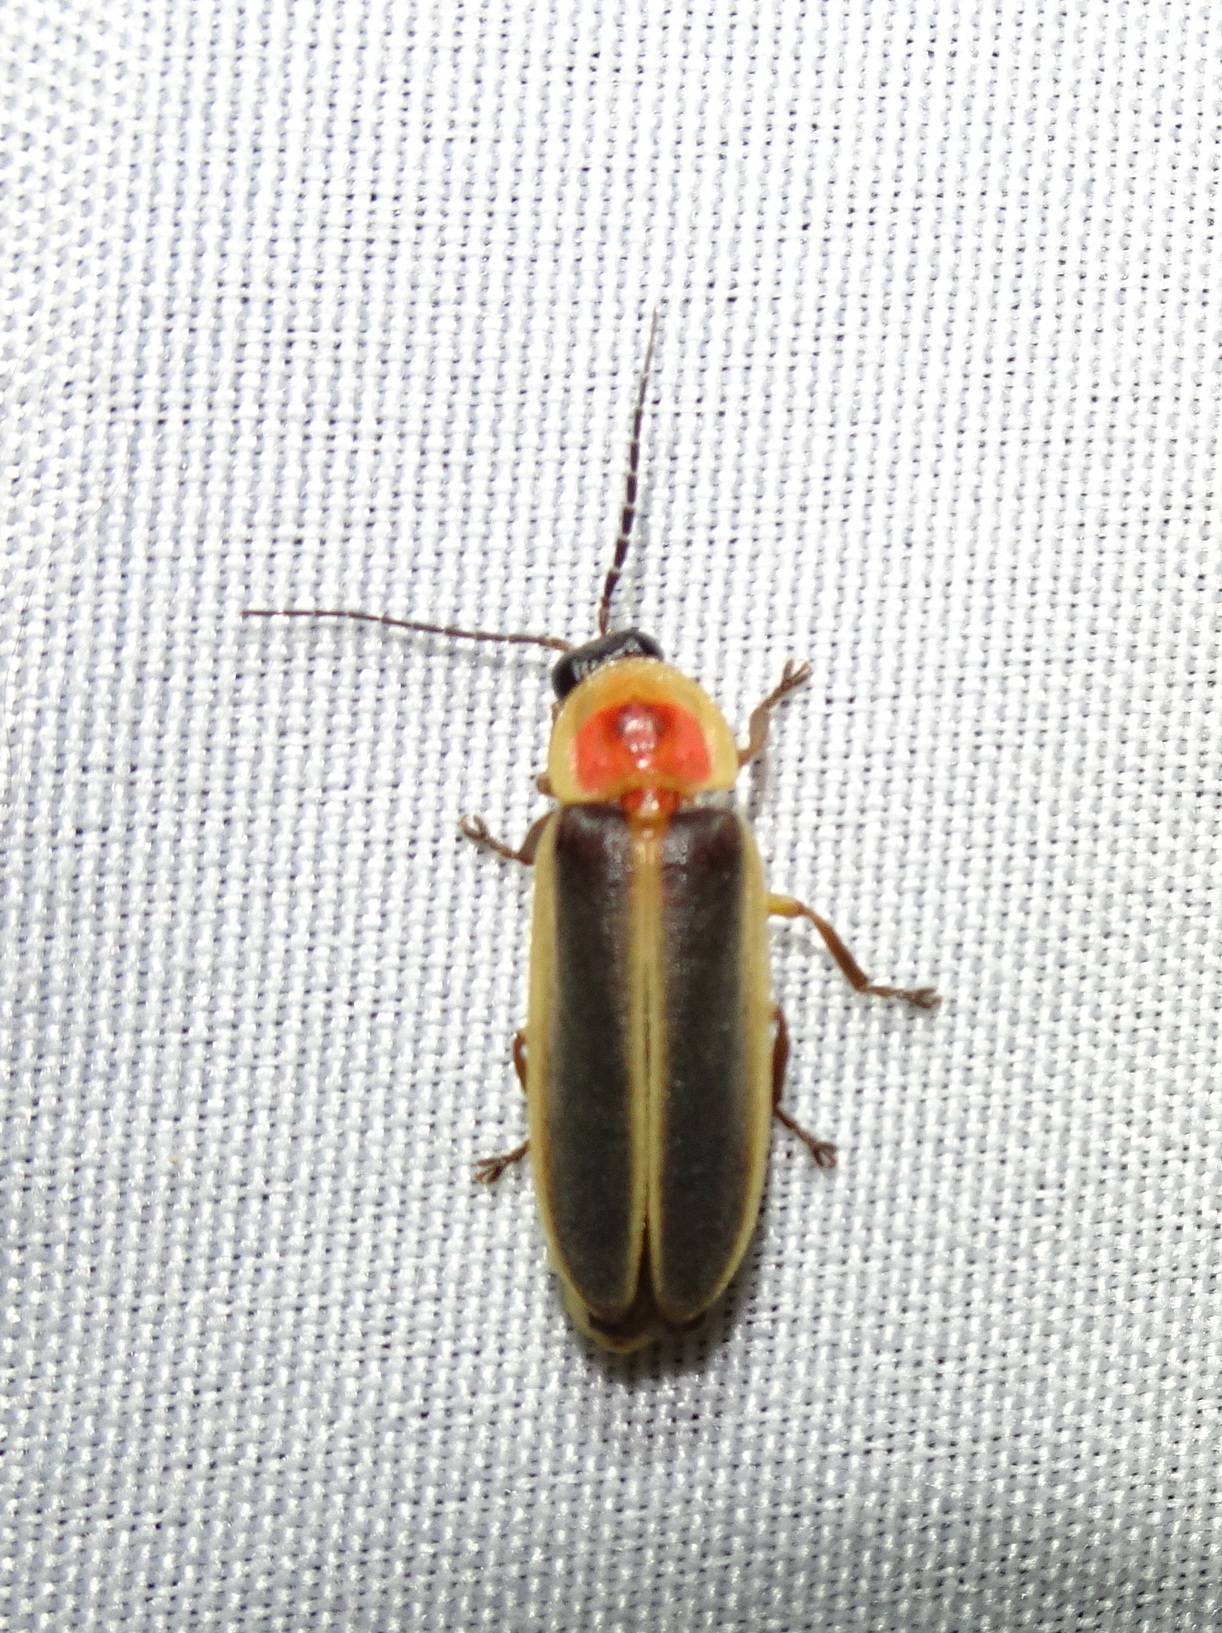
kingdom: Animalia
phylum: Arthropoda
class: Insecta
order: Coleoptera
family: Lampyridae
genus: Photinus
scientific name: Photinus pyralis
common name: Big dipper firefly
